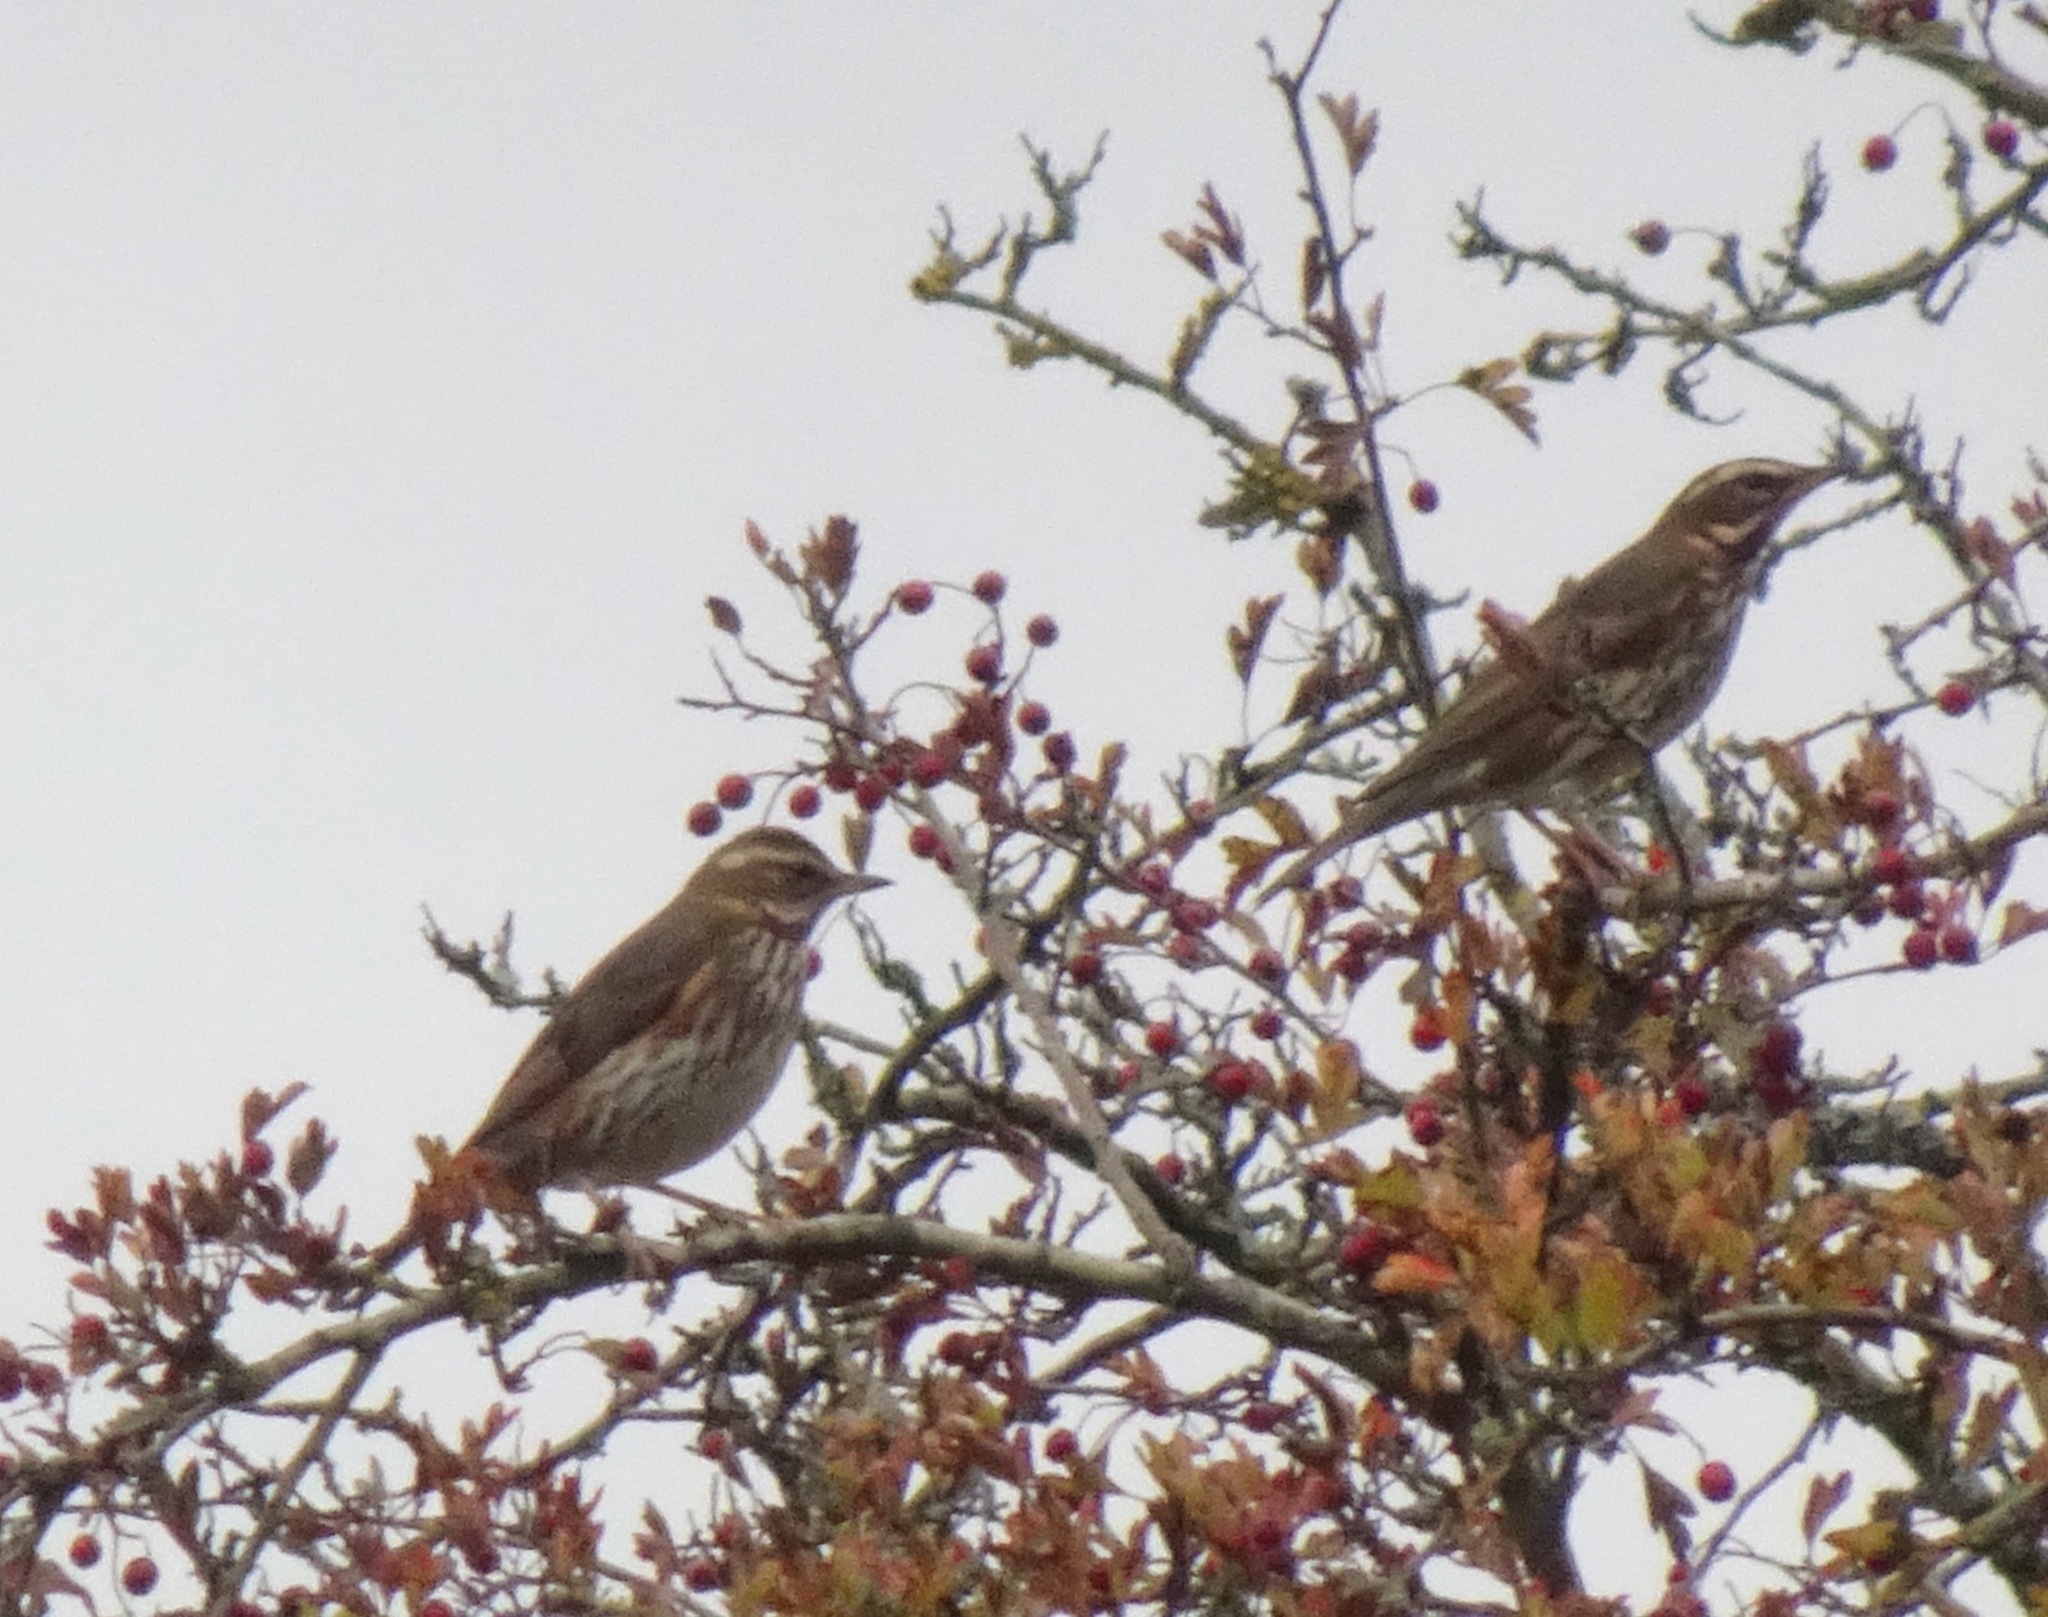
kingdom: Animalia
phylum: Chordata
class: Aves
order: Passeriformes
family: Turdidae
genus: Turdus
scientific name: Turdus iliacus
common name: Redwing
